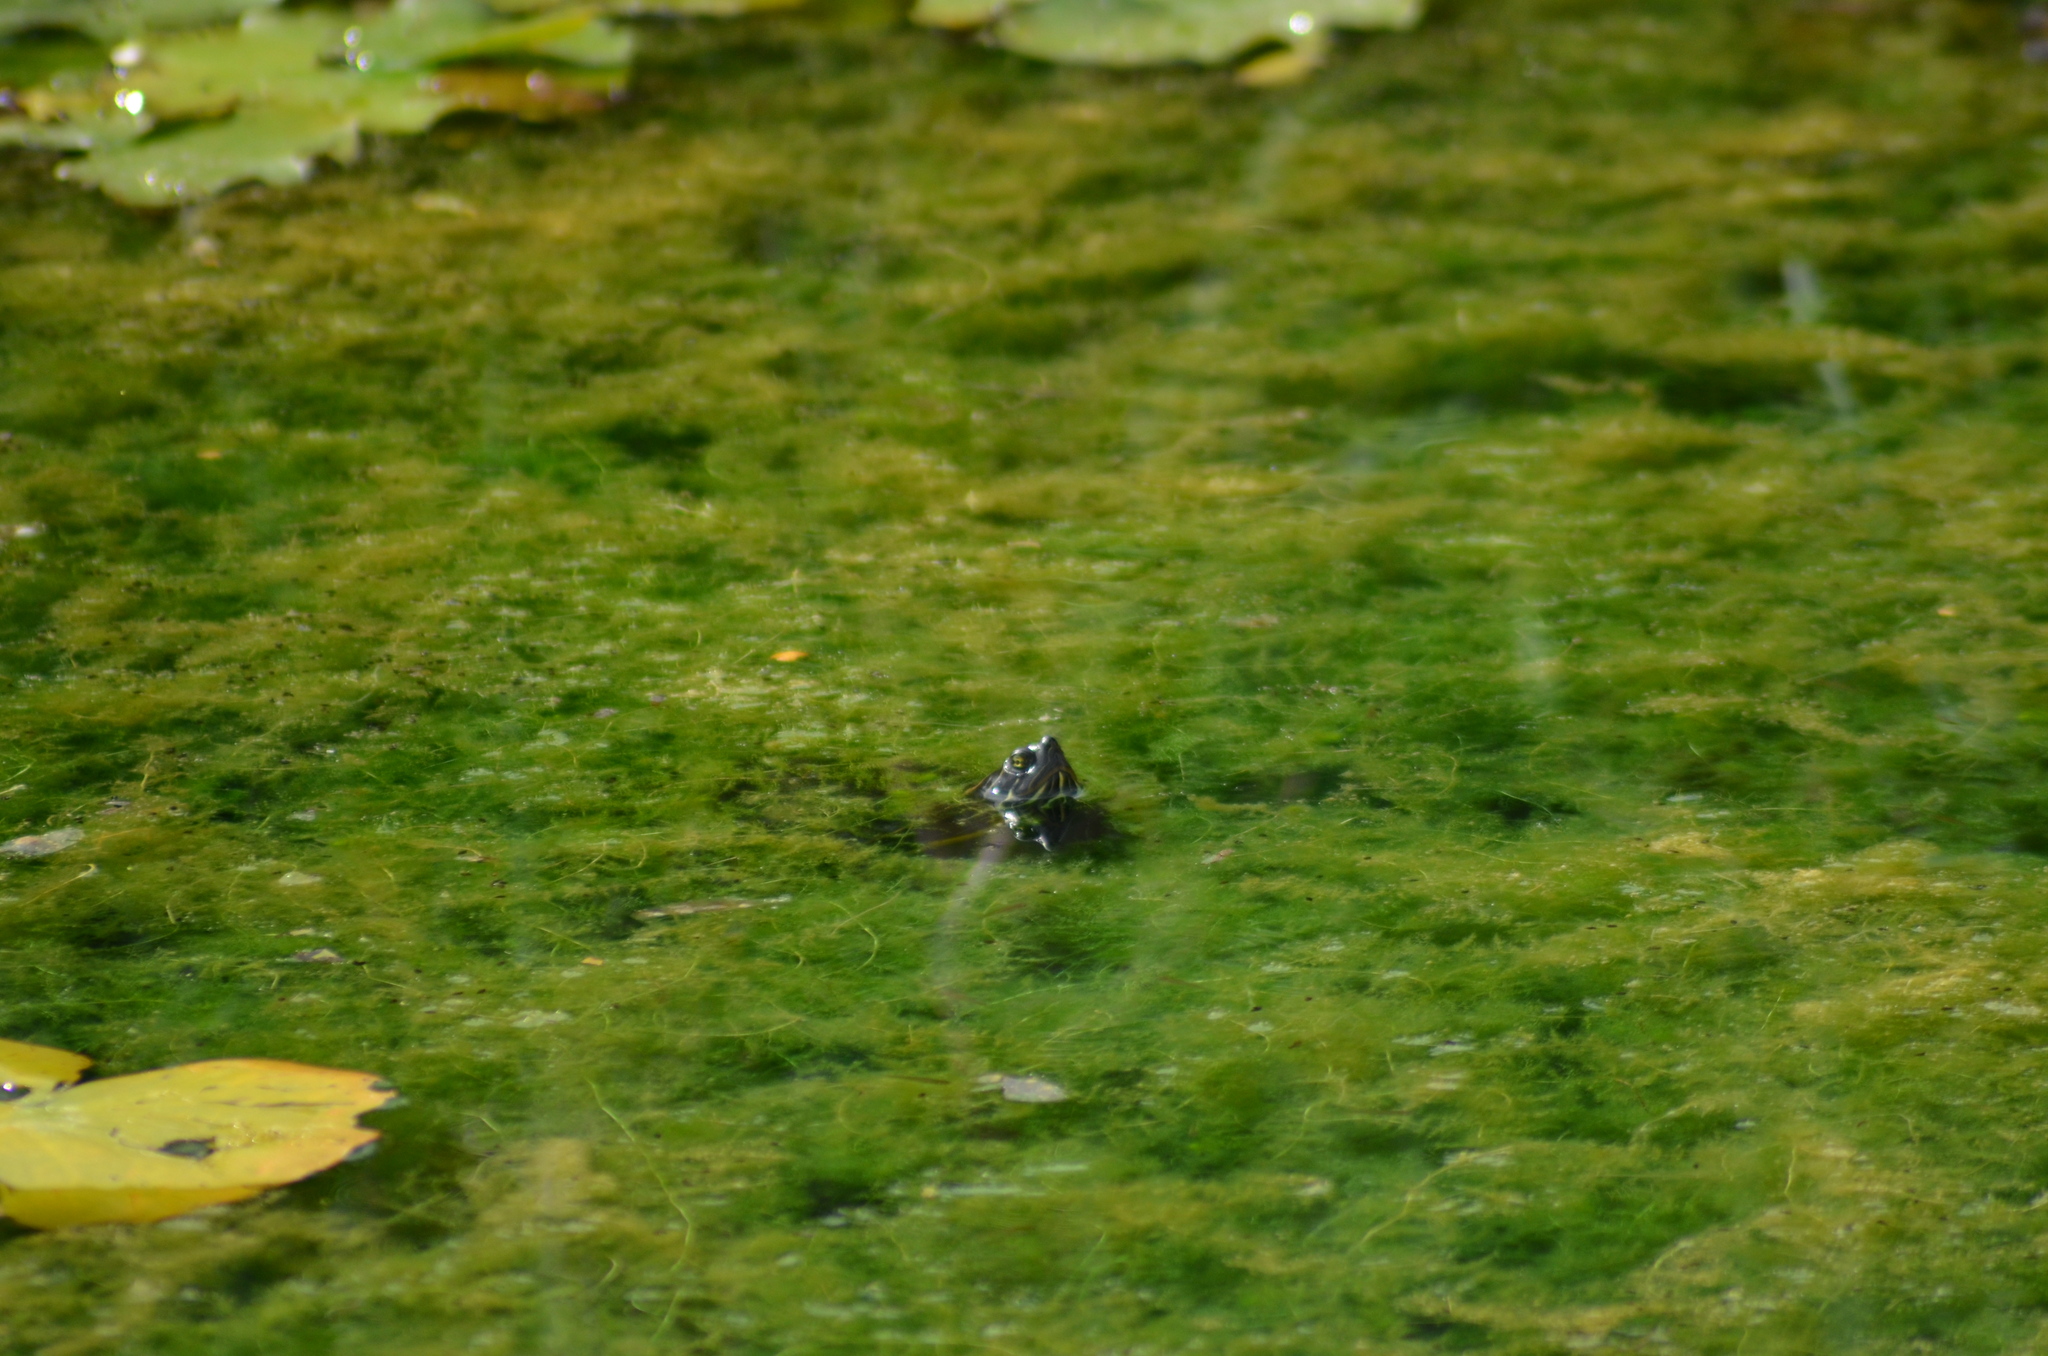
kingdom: Animalia
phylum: Chordata
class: Testudines
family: Emydidae
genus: Trachemys
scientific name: Trachemys scripta
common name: Slider
